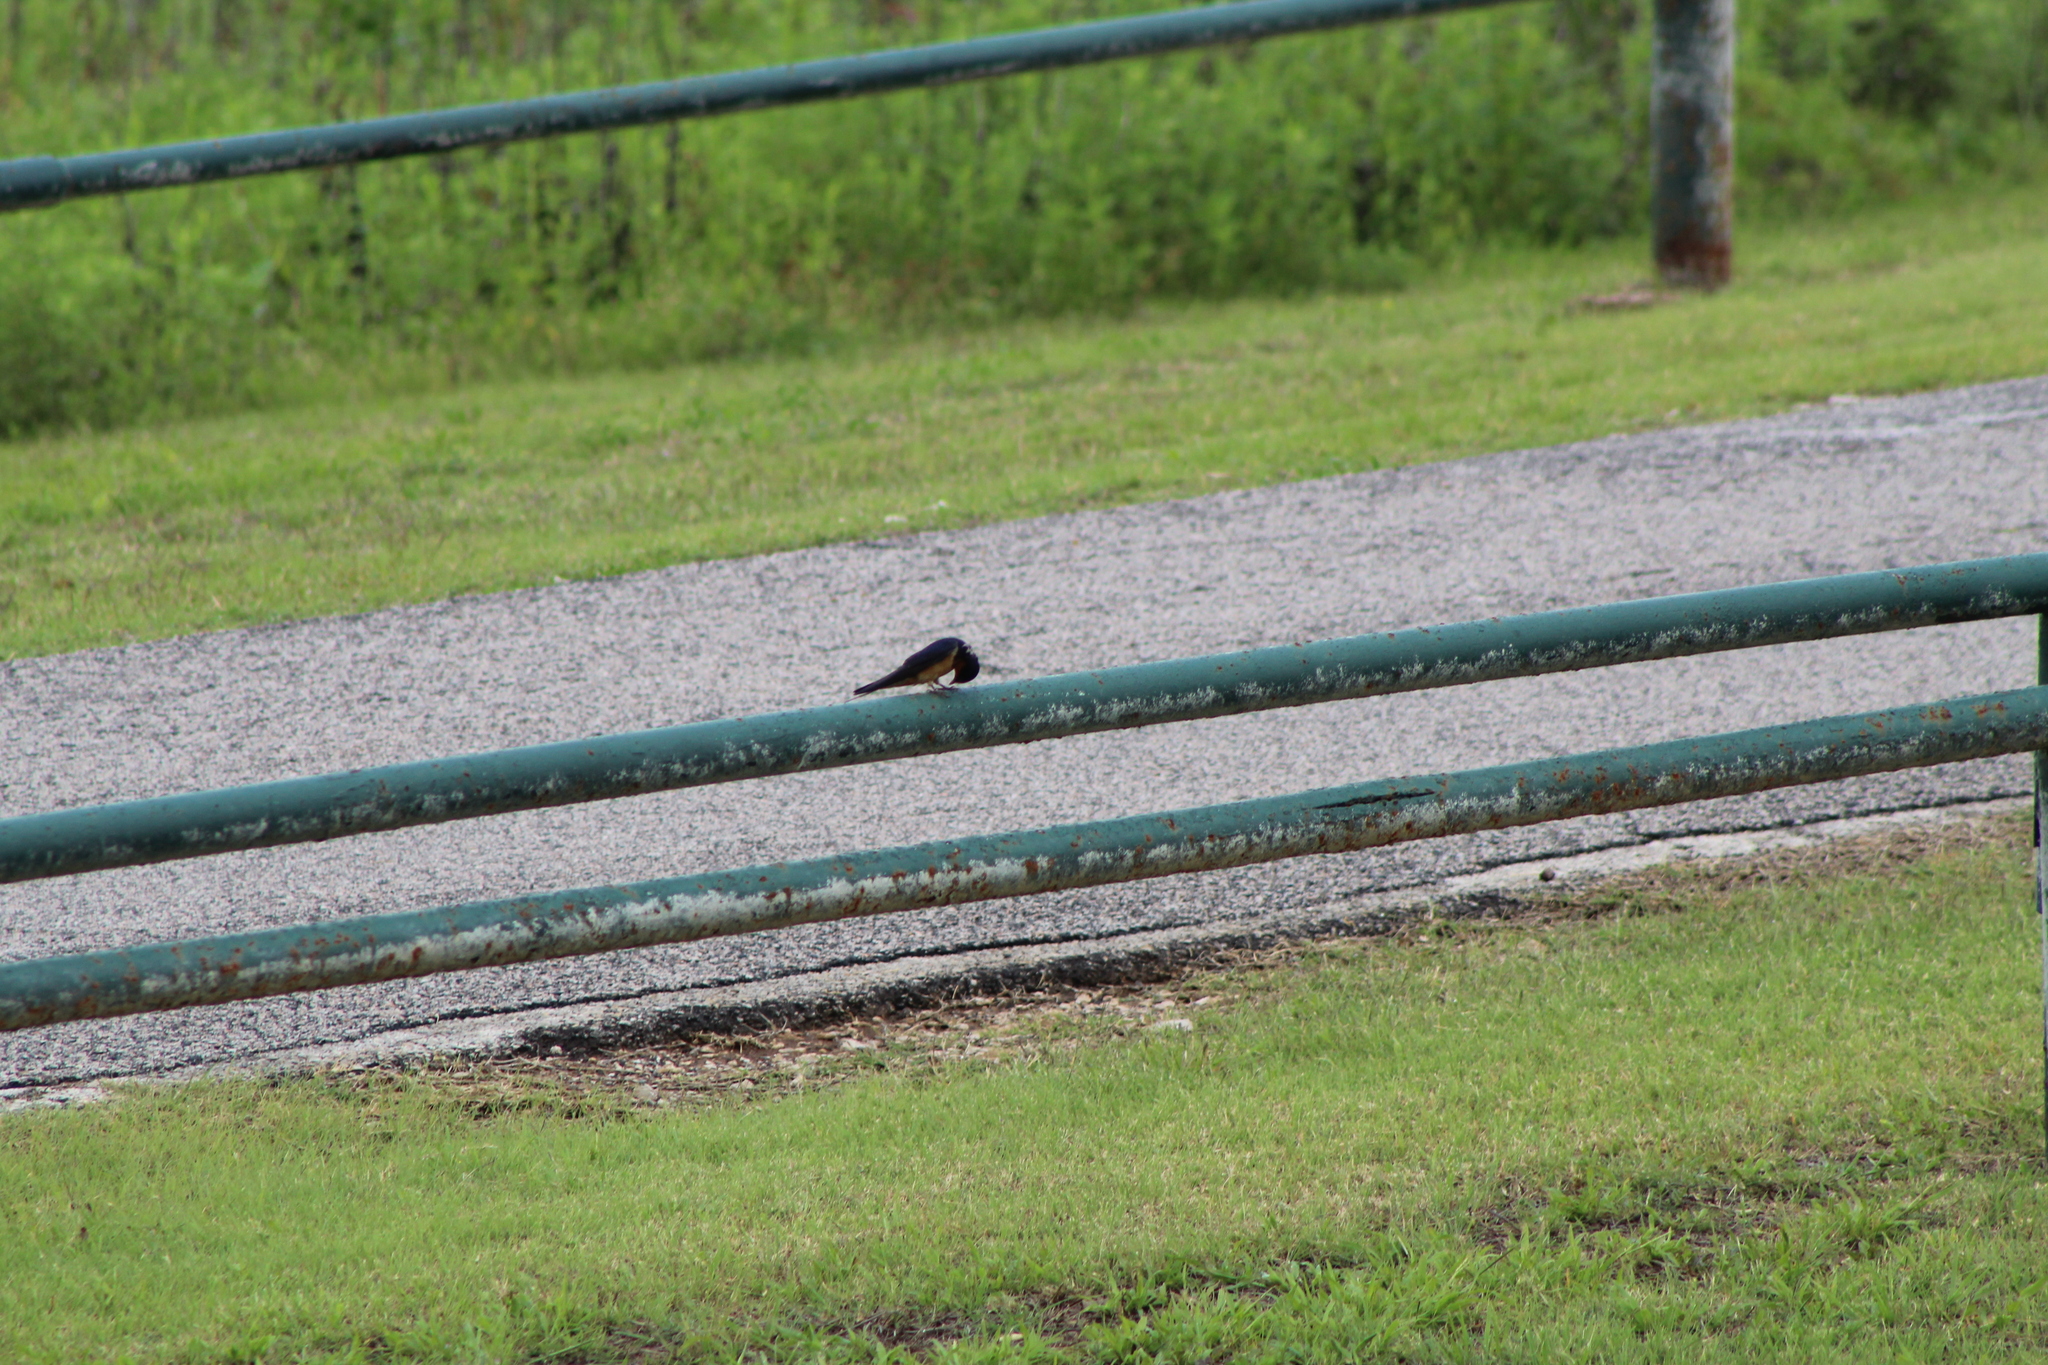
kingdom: Animalia
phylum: Chordata
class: Aves
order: Passeriformes
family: Hirundinidae
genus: Hirundo
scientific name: Hirundo rustica
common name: Barn swallow
